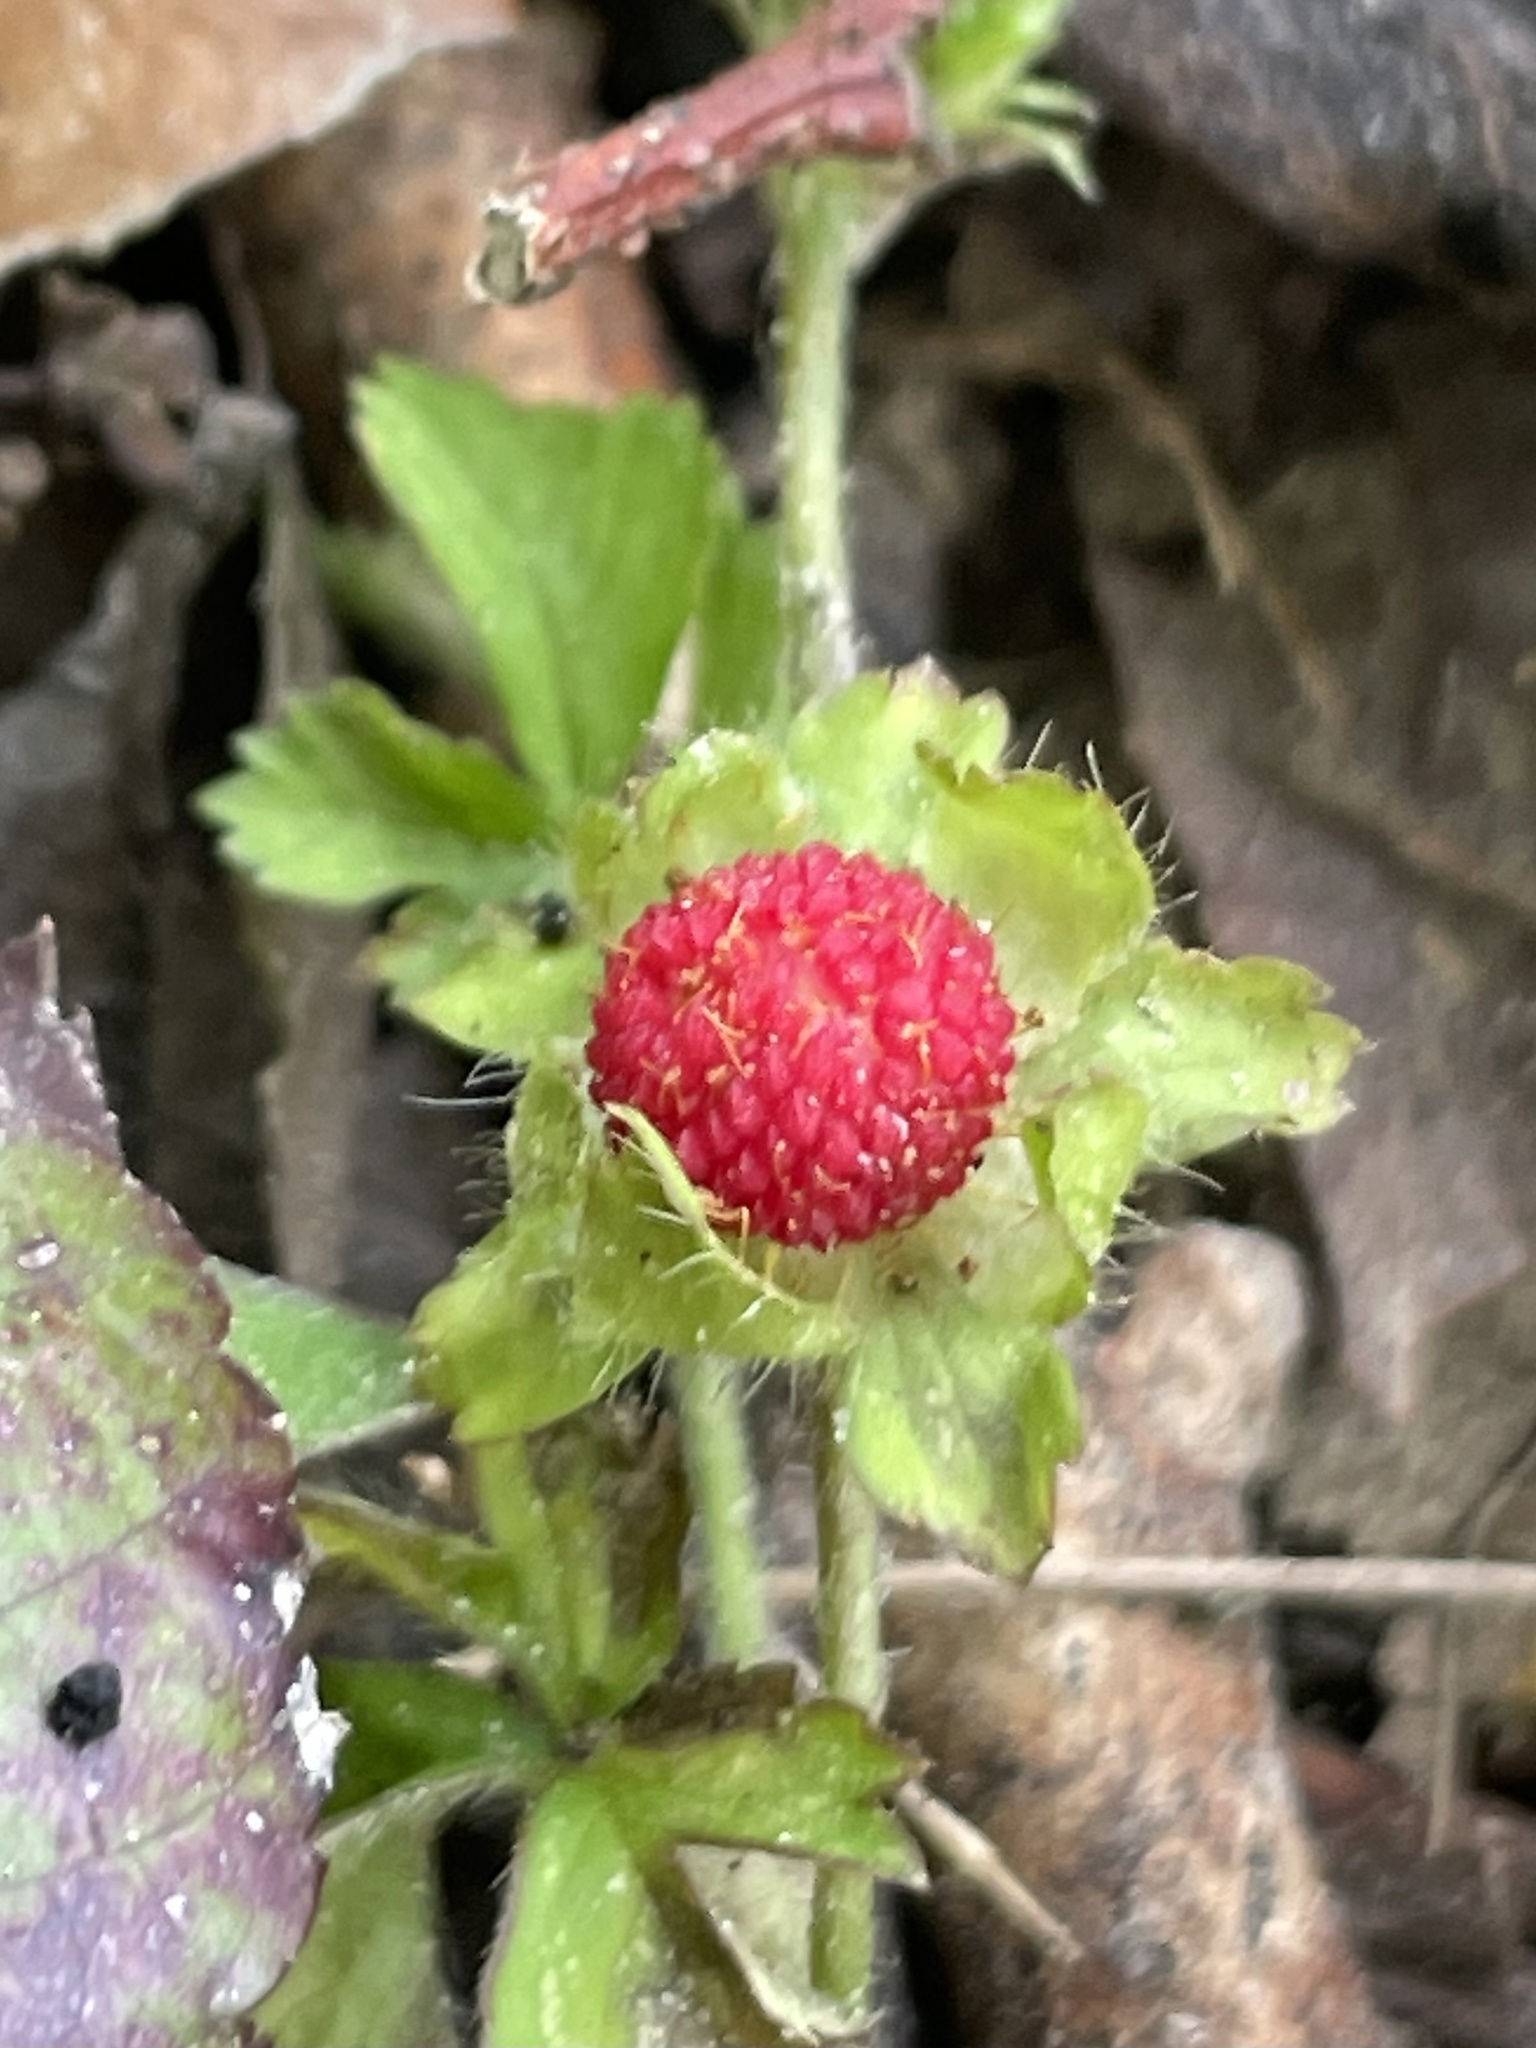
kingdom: Plantae
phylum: Tracheophyta
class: Magnoliopsida
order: Rosales
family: Rosaceae
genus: Potentilla
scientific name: Potentilla indica
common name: Yellow-flowered strawberry
